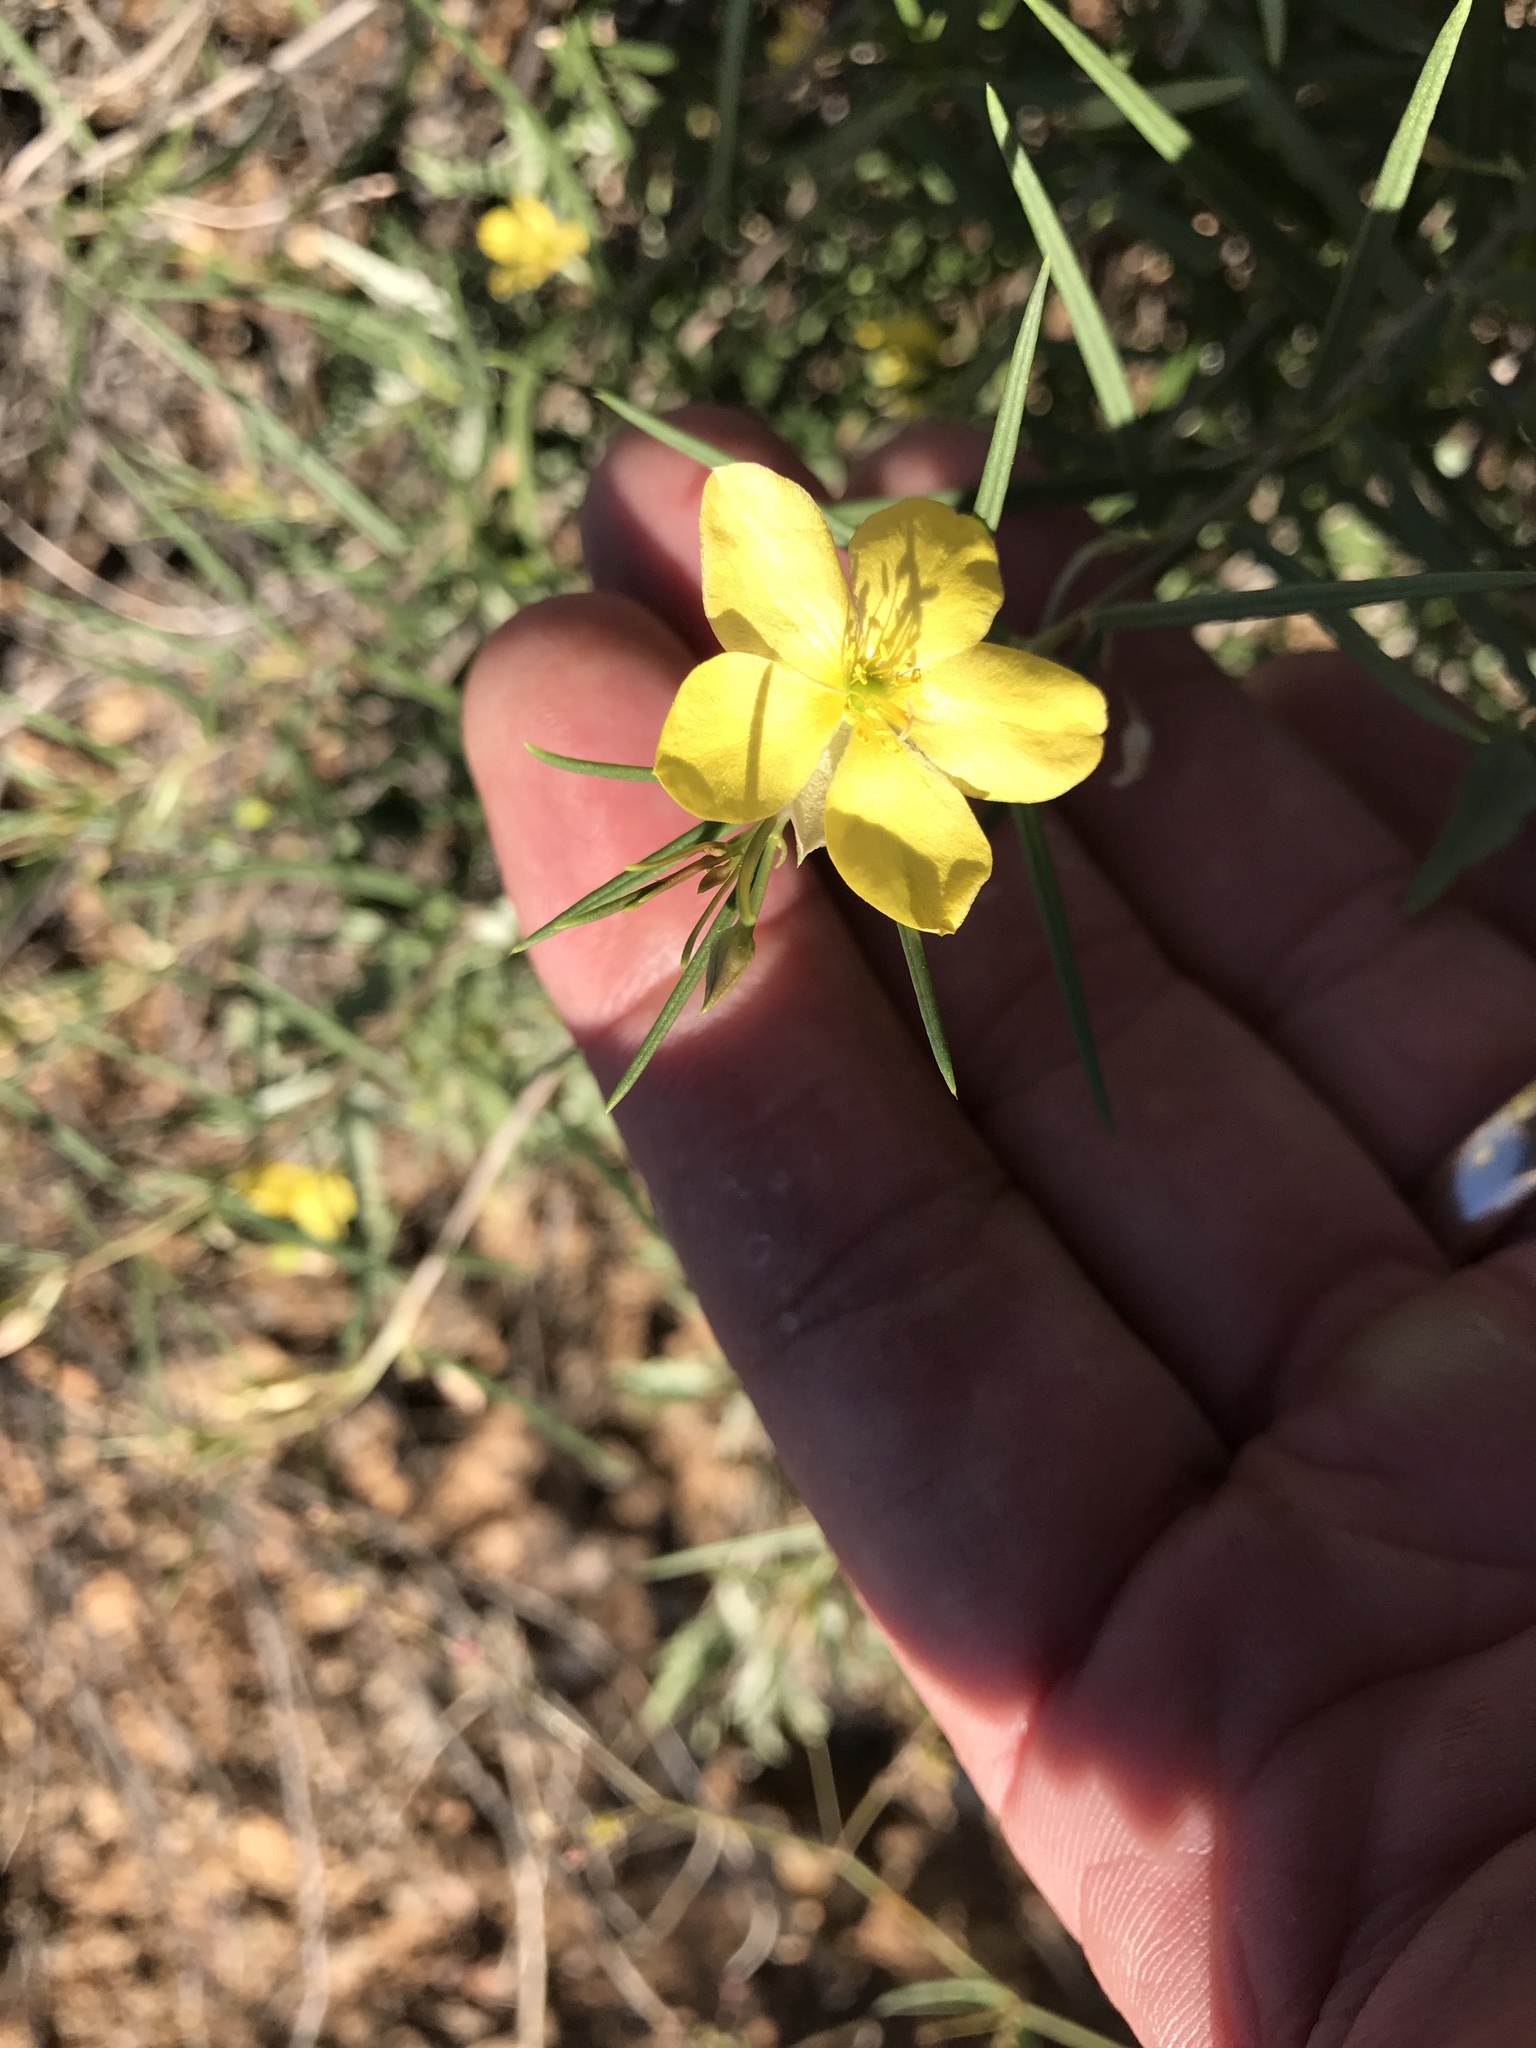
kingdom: Plantae
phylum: Tracheophyta
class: Magnoliopsida
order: Lamiales
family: Oleaceae
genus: Menodora
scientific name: Menodora scabra
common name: Rough menodora
